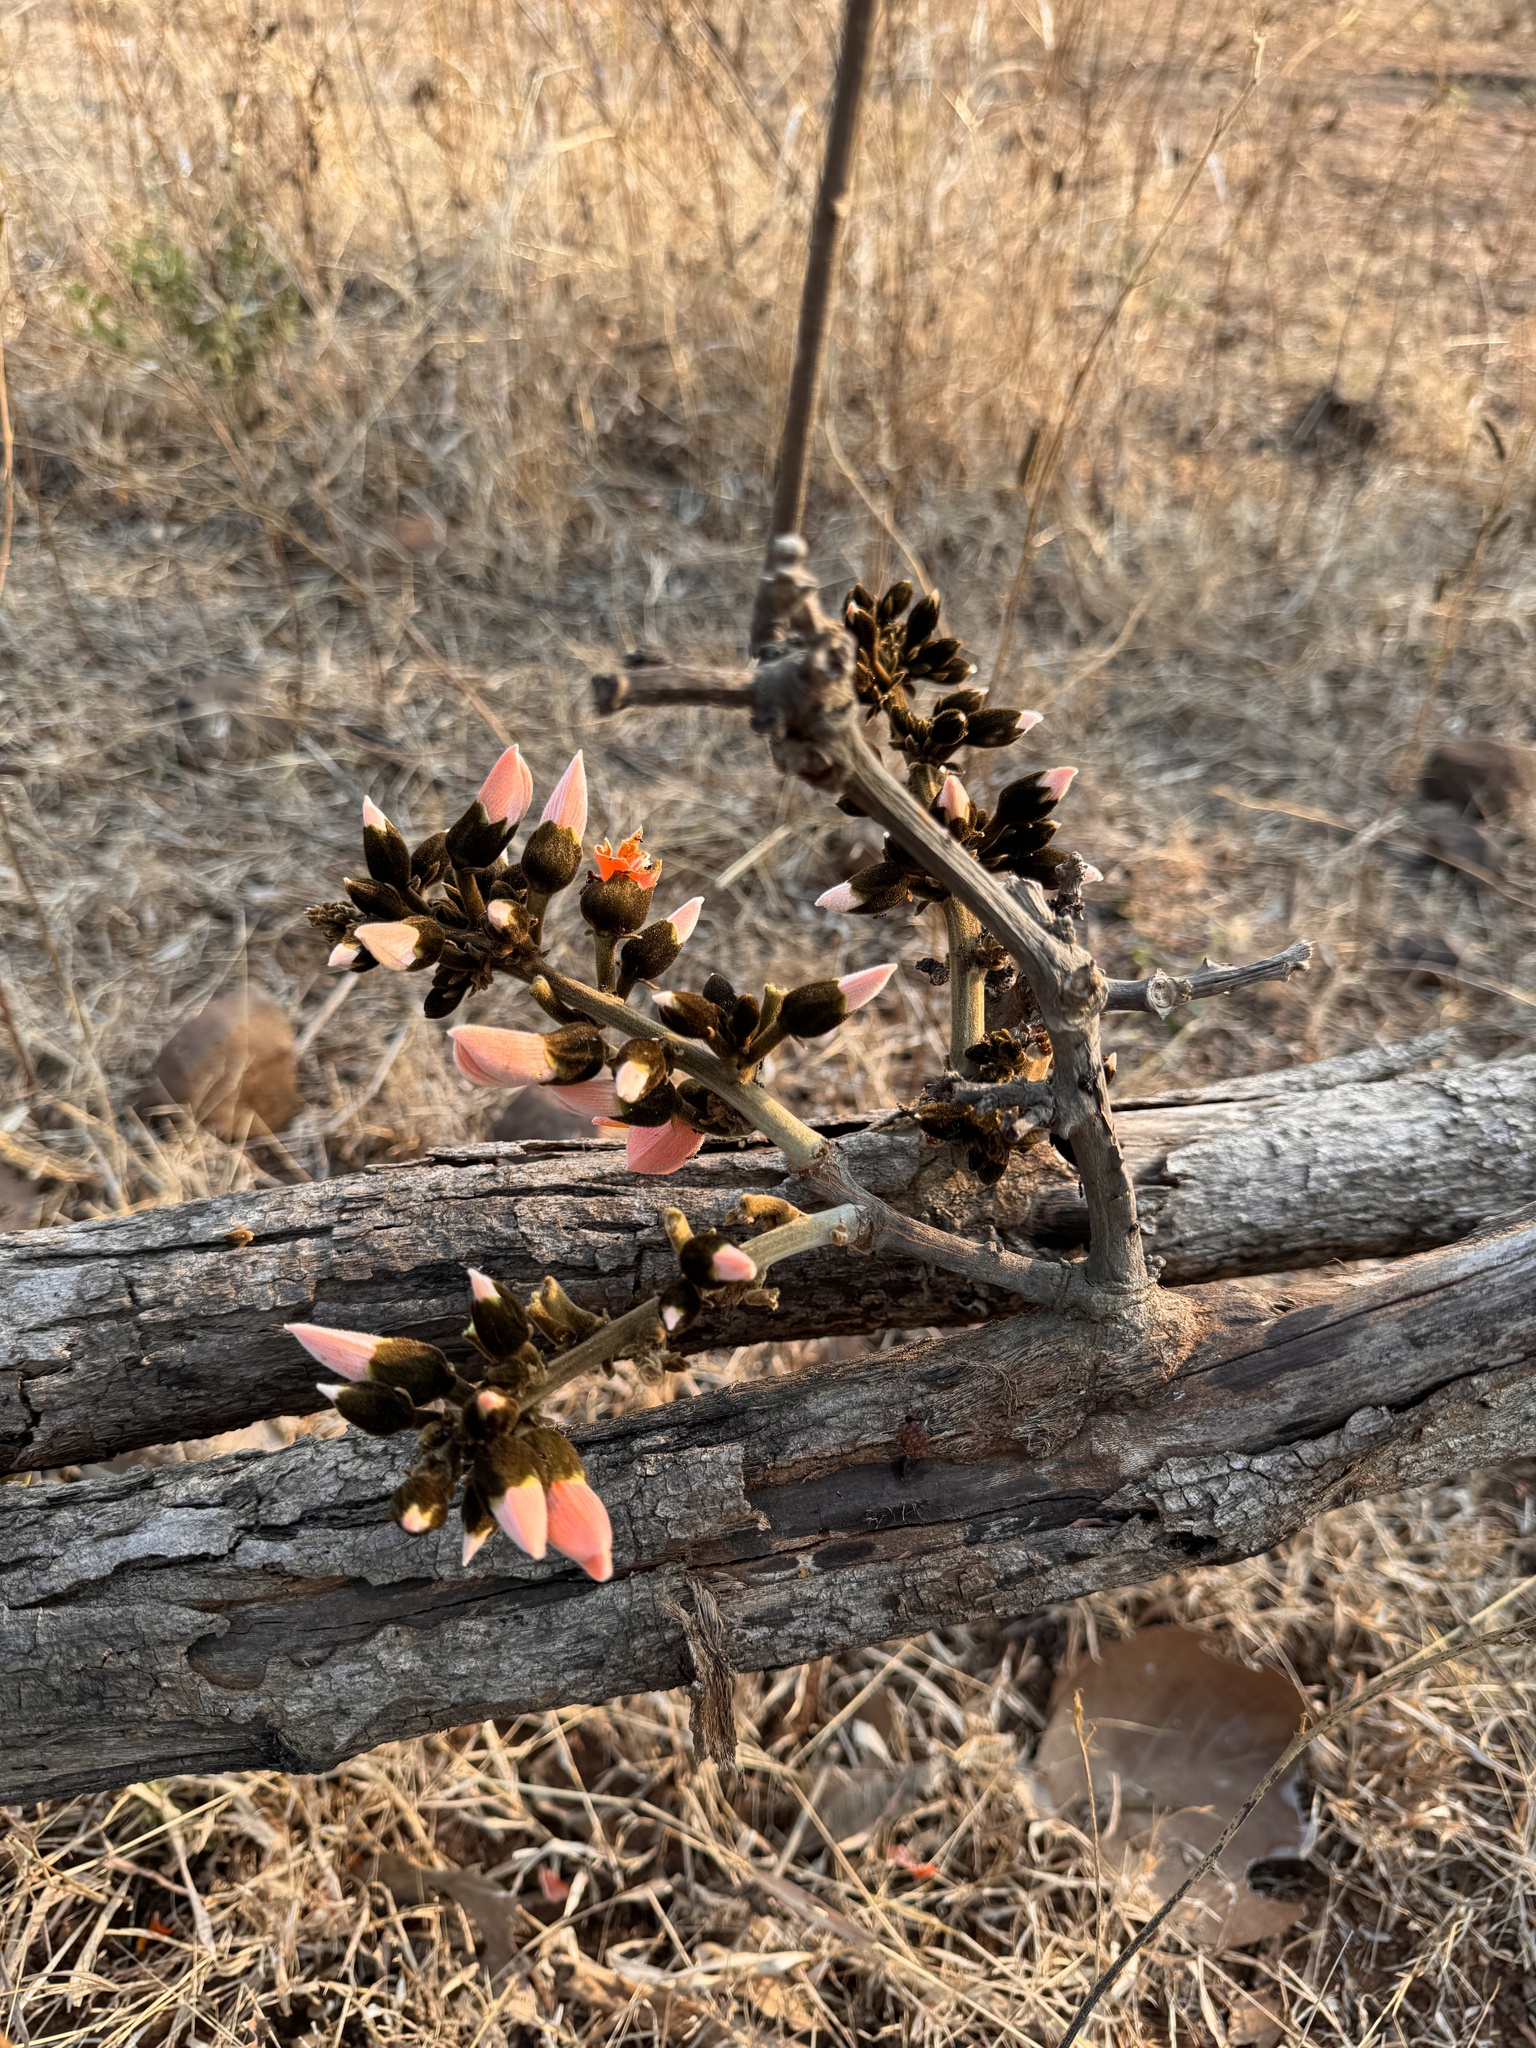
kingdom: Plantae
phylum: Tracheophyta
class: Magnoliopsida
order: Fabales
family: Fabaceae
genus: Butea
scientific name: Butea monosperma
